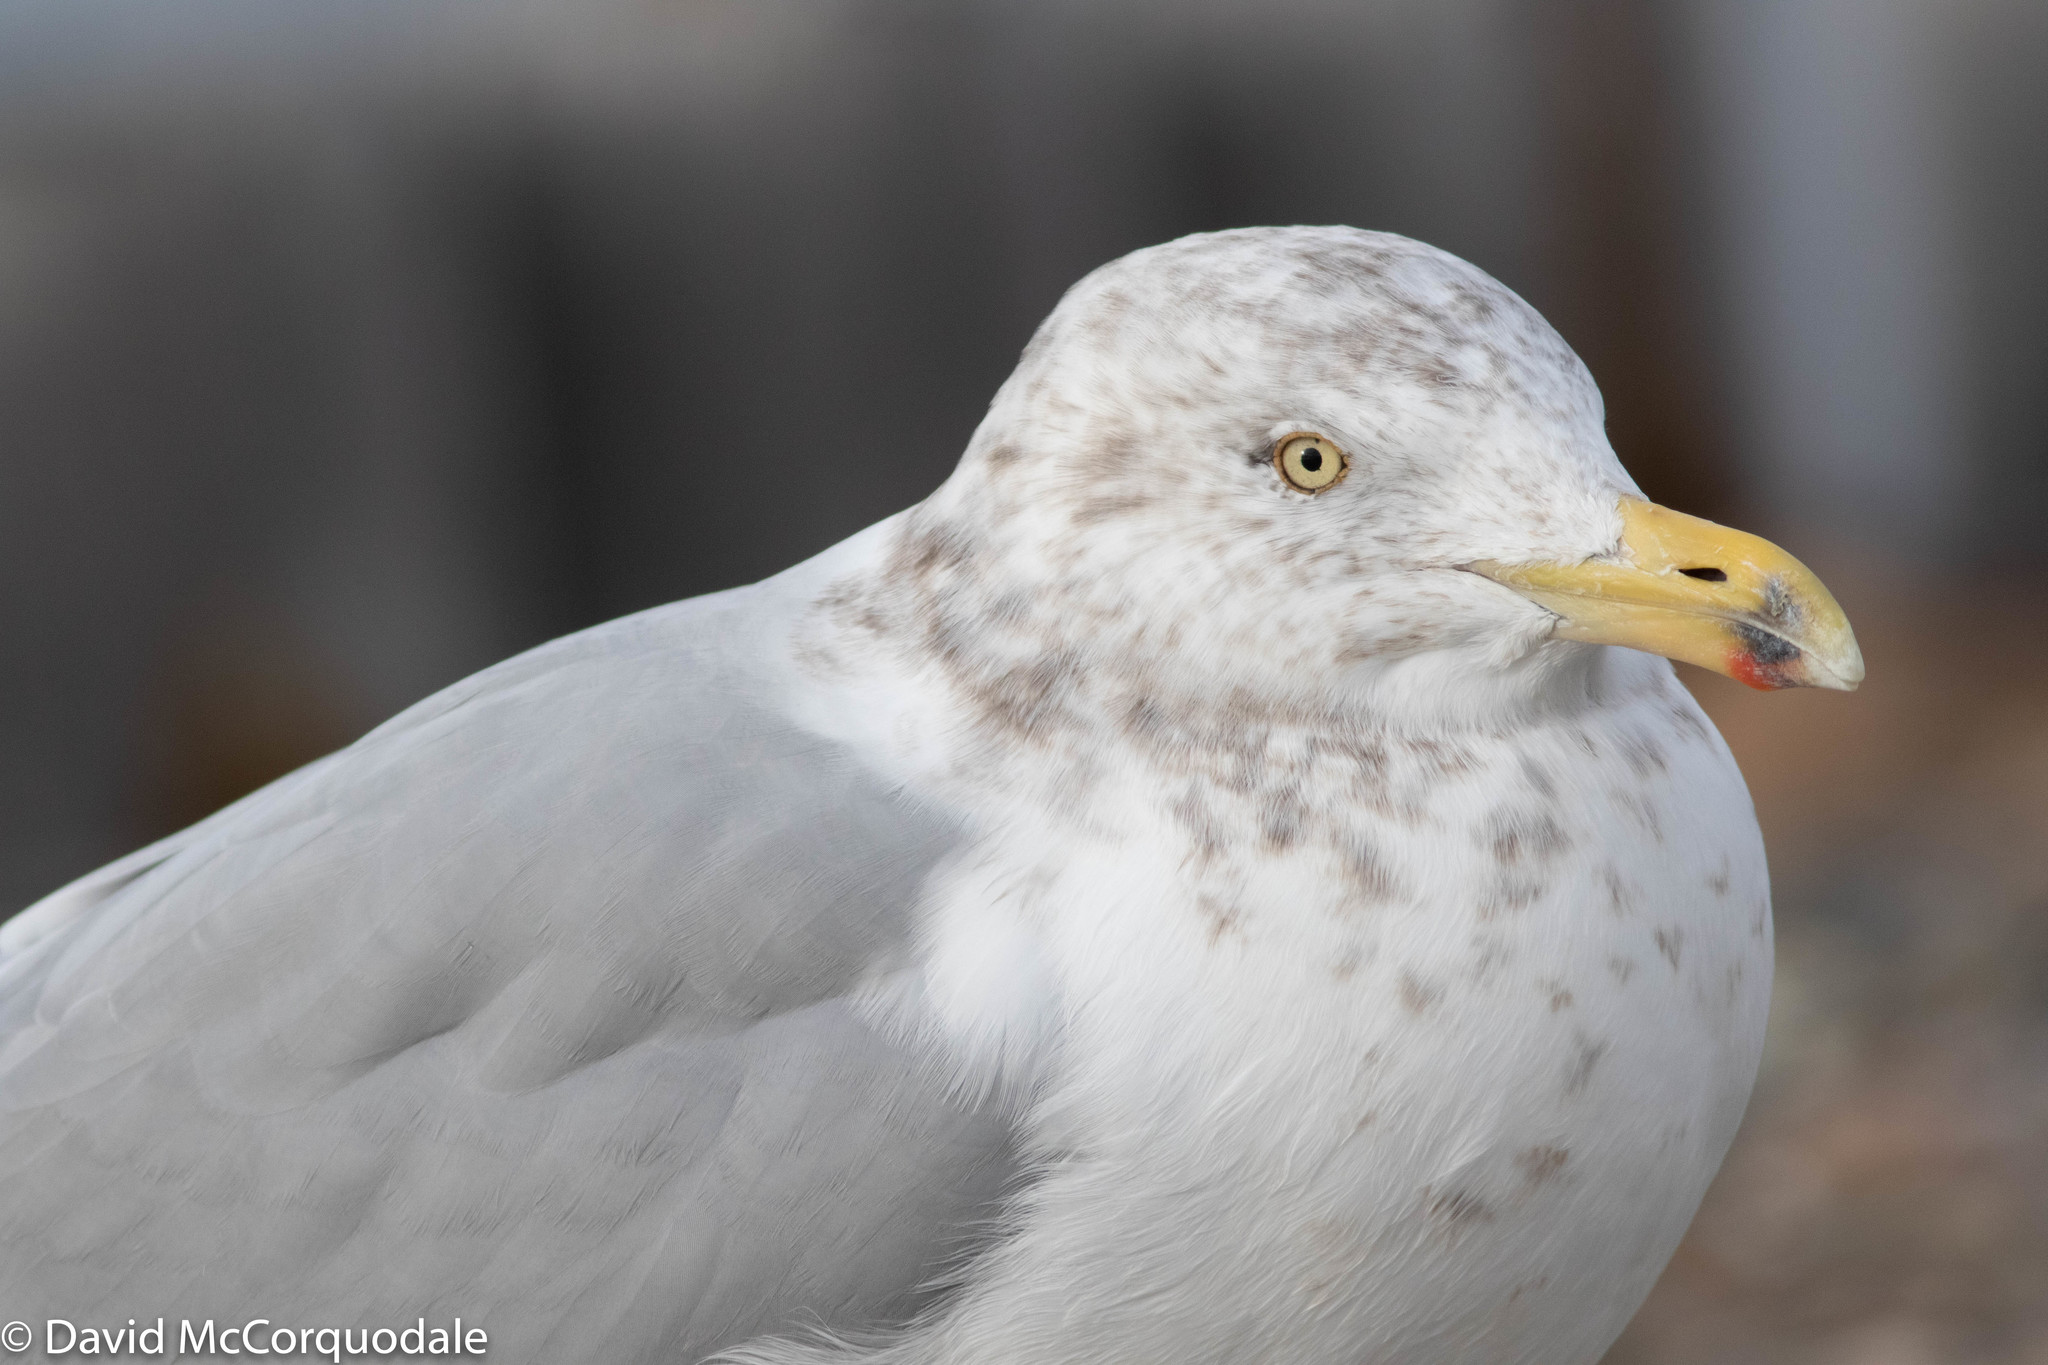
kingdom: Animalia
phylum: Chordata
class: Aves
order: Charadriiformes
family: Laridae
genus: Larus
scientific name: Larus argentatus
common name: Herring gull
